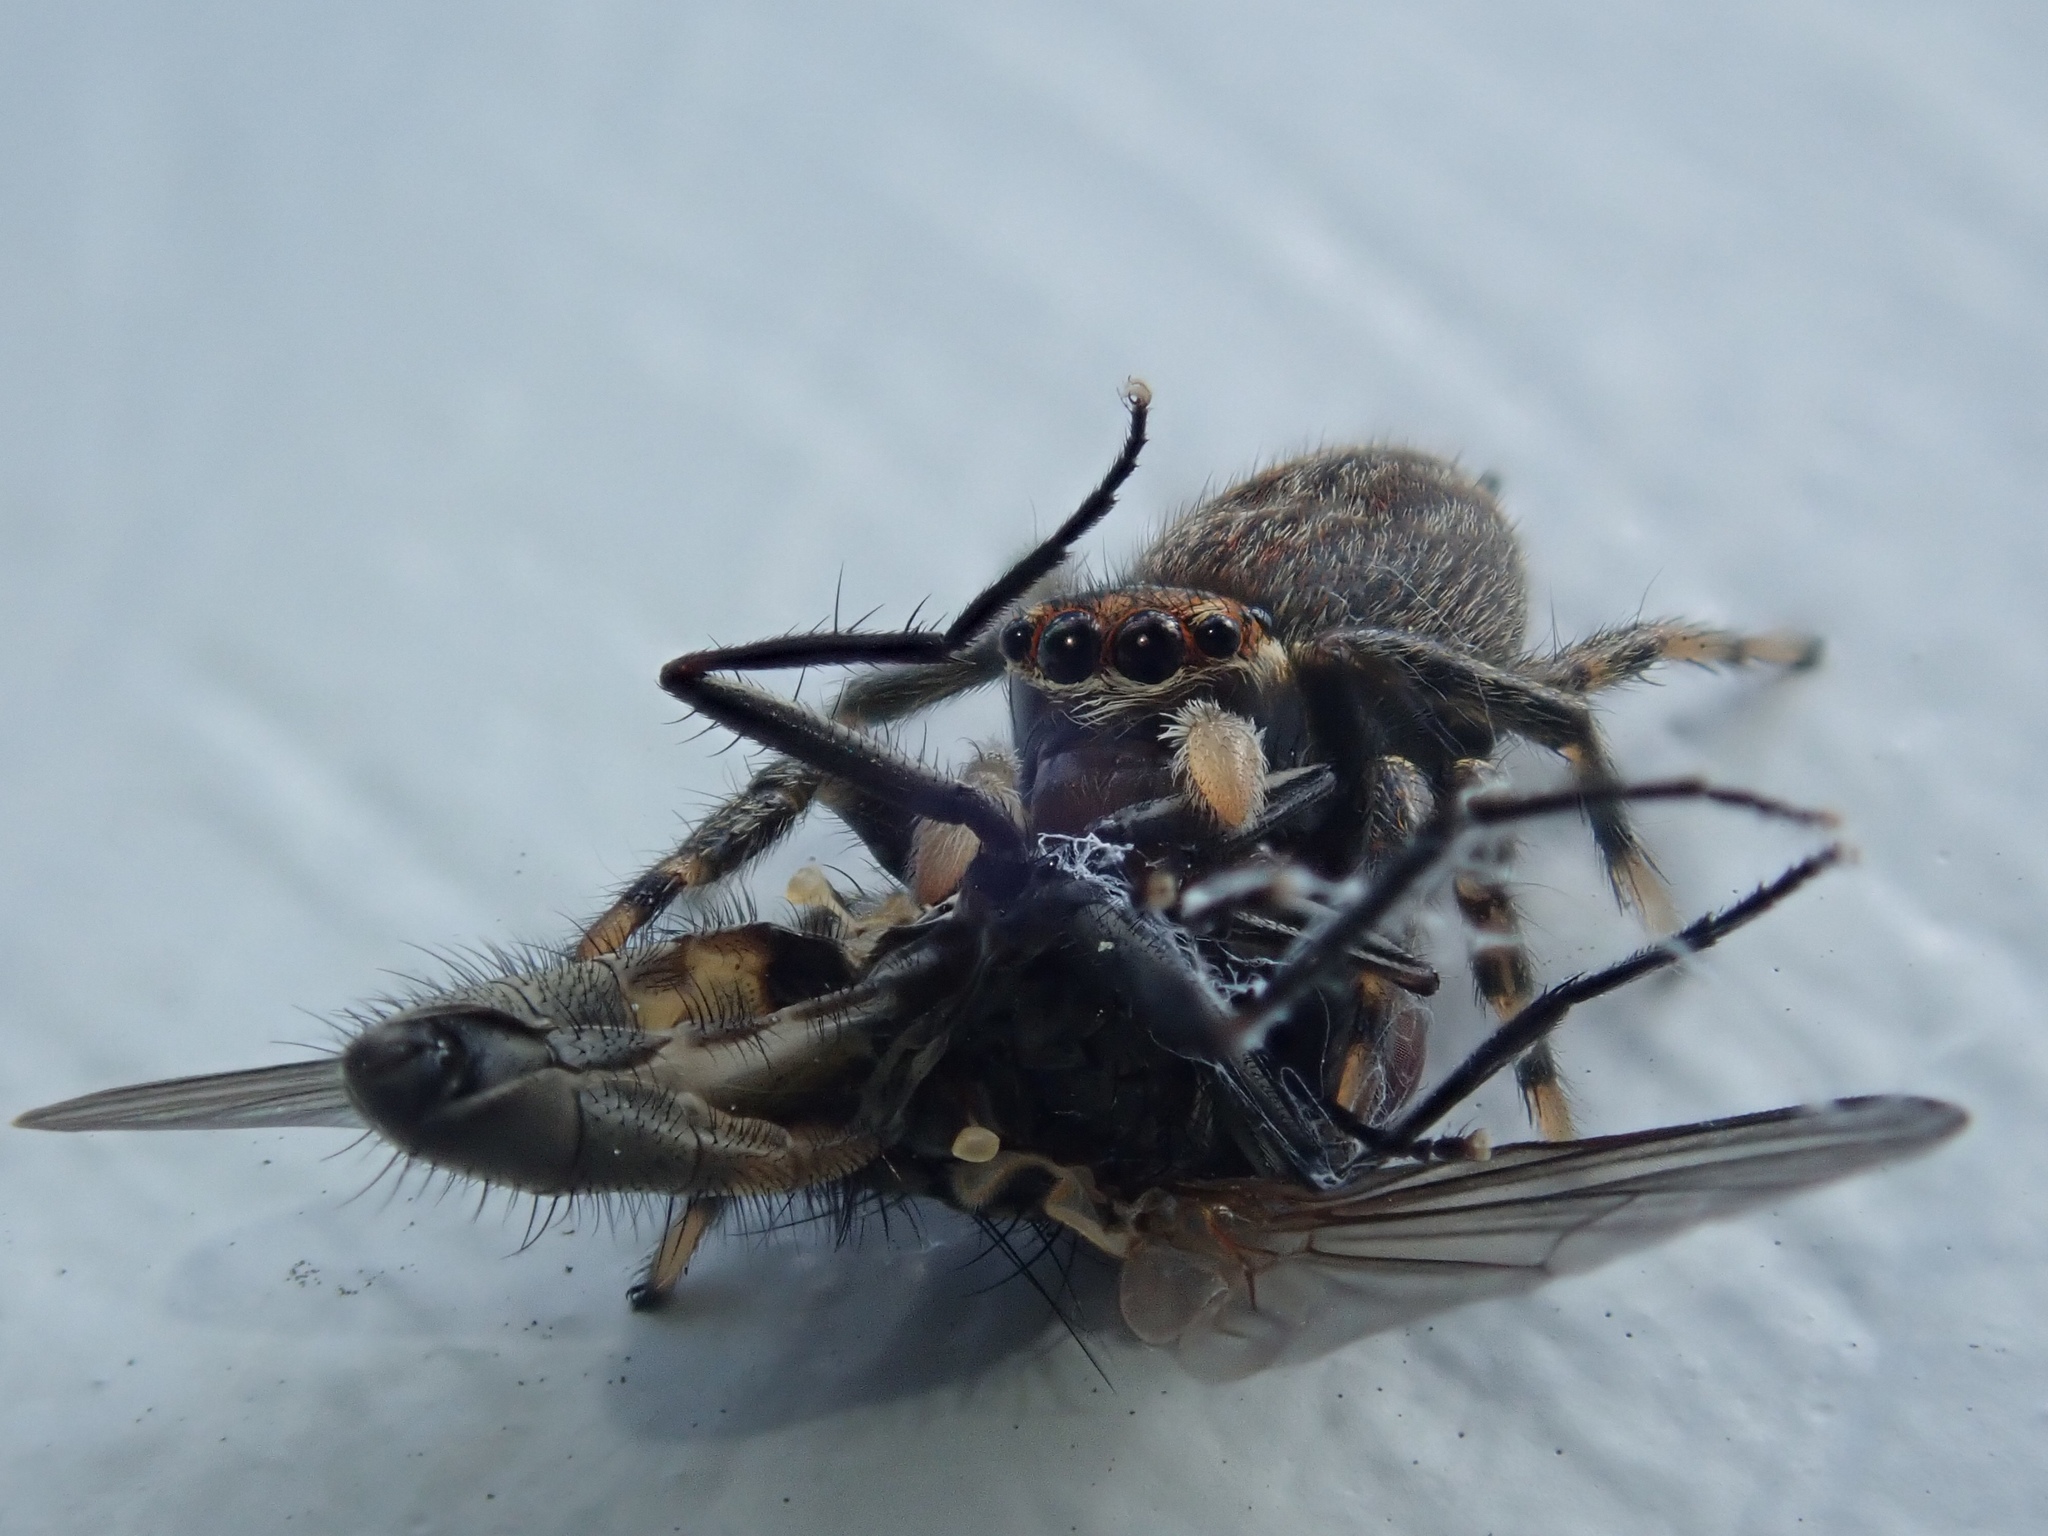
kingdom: Animalia
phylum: Arthropoda
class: Arachnida
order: Araneae
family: Salticidae
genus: Maratus
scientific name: Maratus griseus
